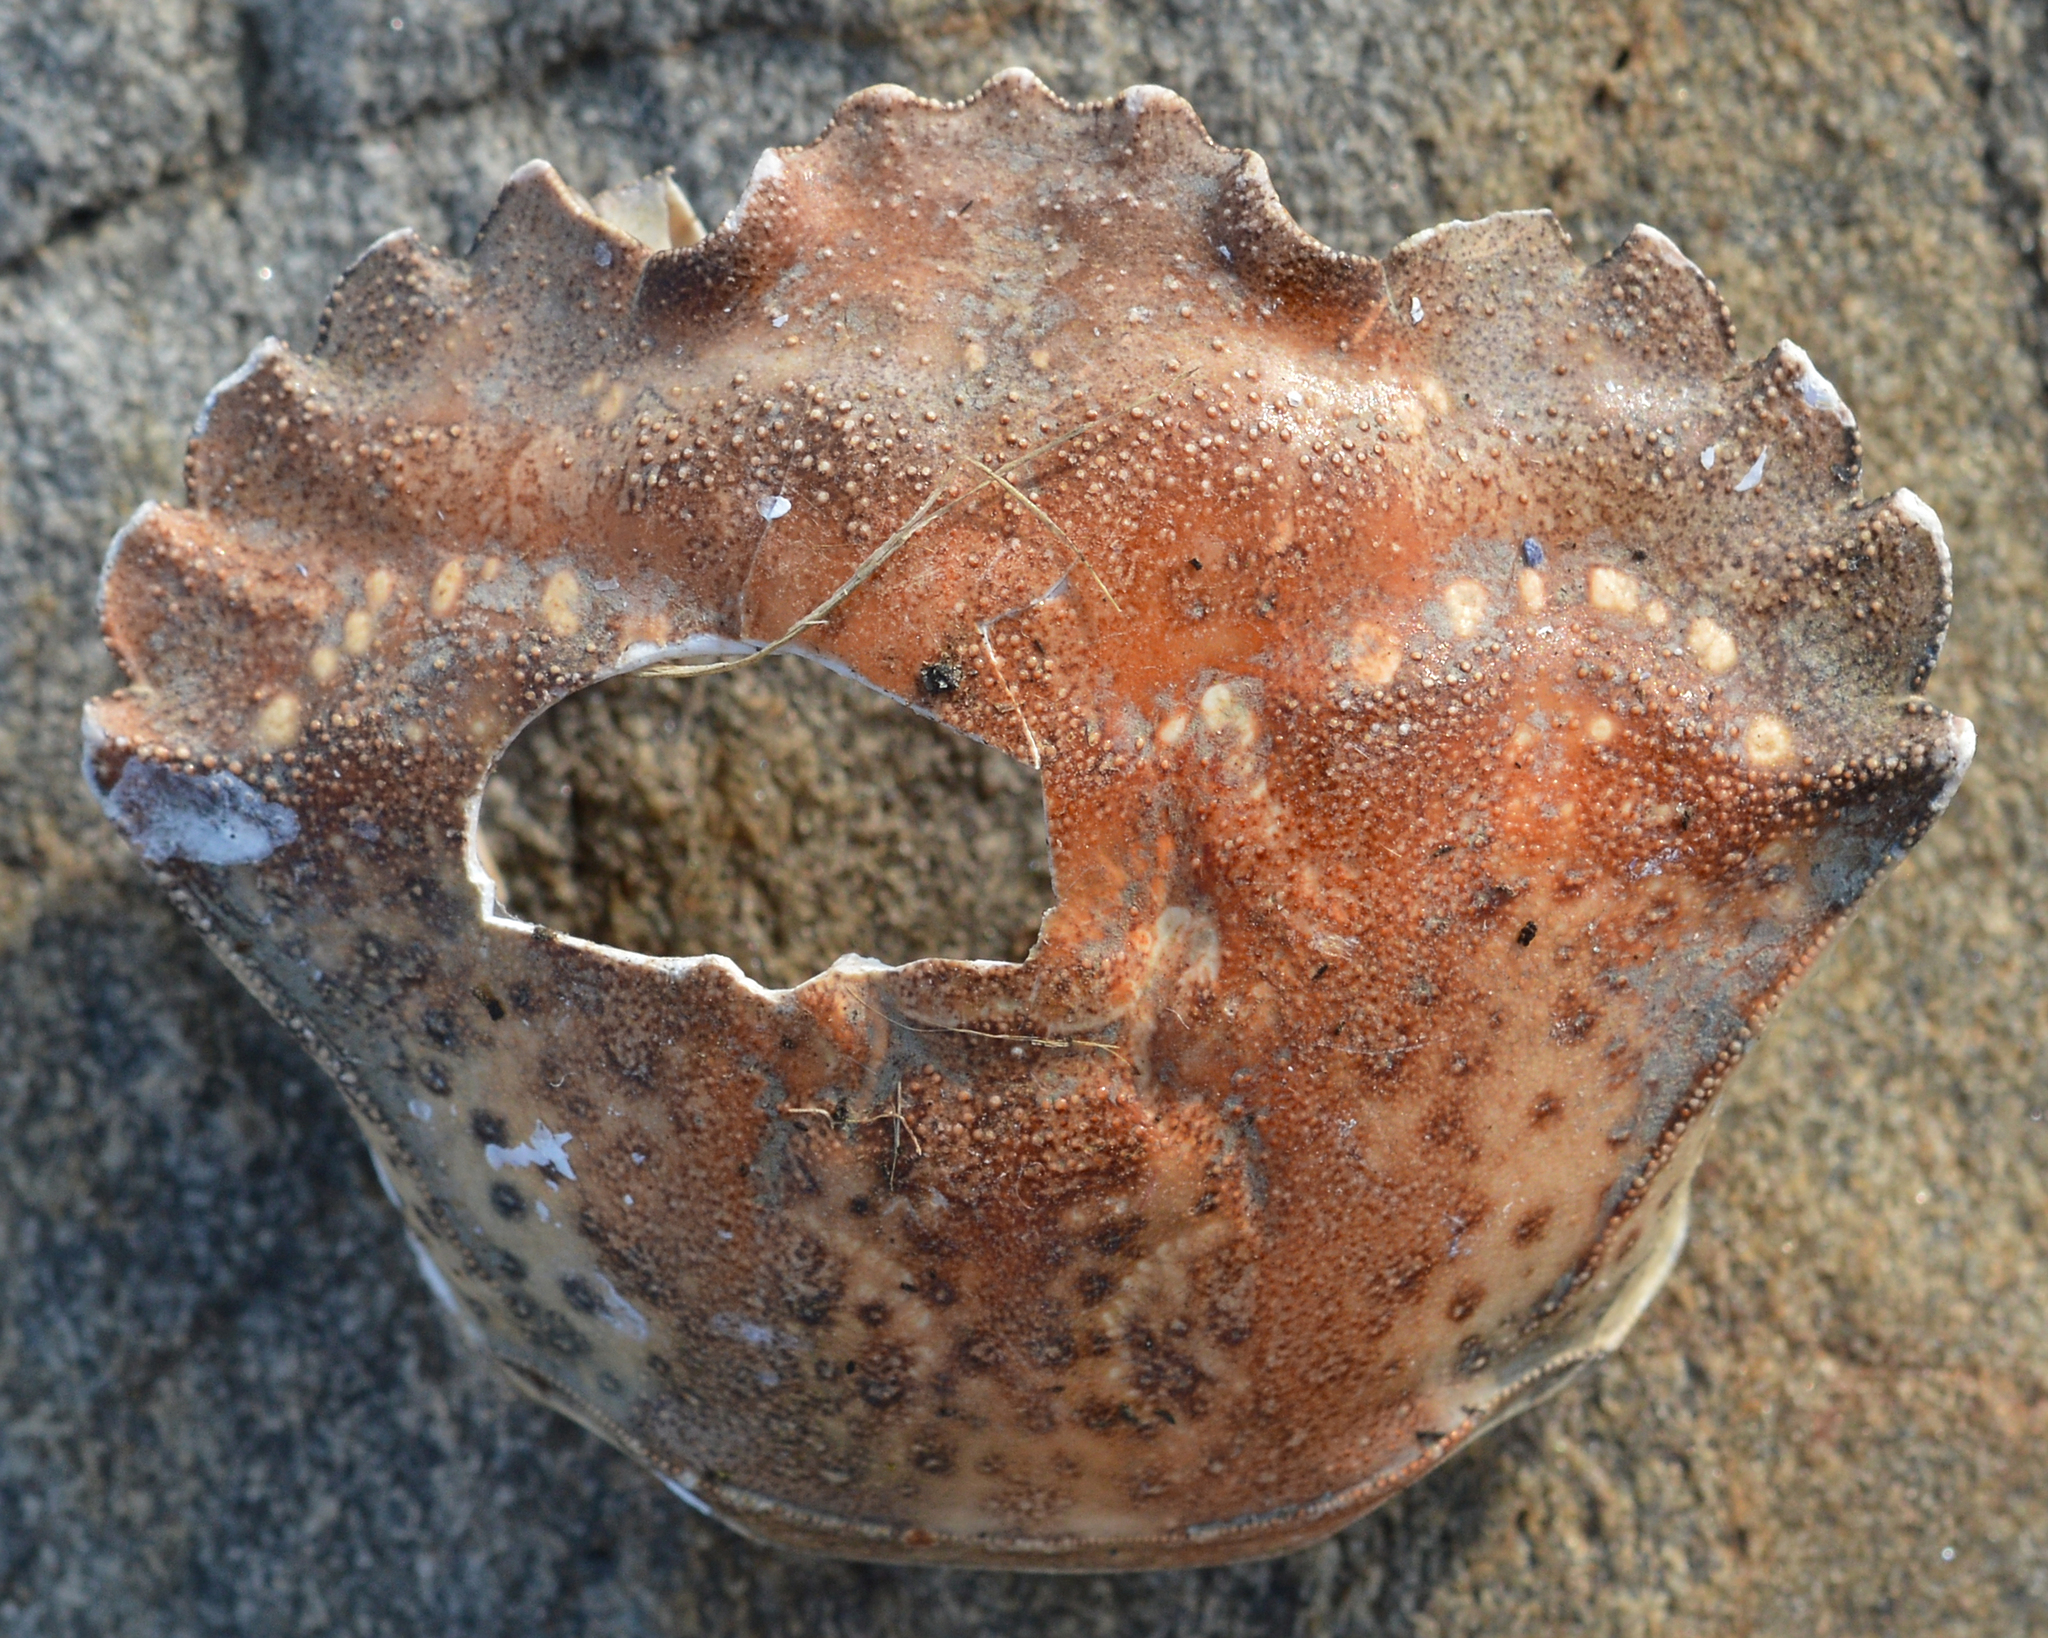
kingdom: Animalia
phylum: Arthropoda
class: Malacostraca
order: Decapoda
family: Carcinidae
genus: Carcinus
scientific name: Carcinus maenas
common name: European green crab
